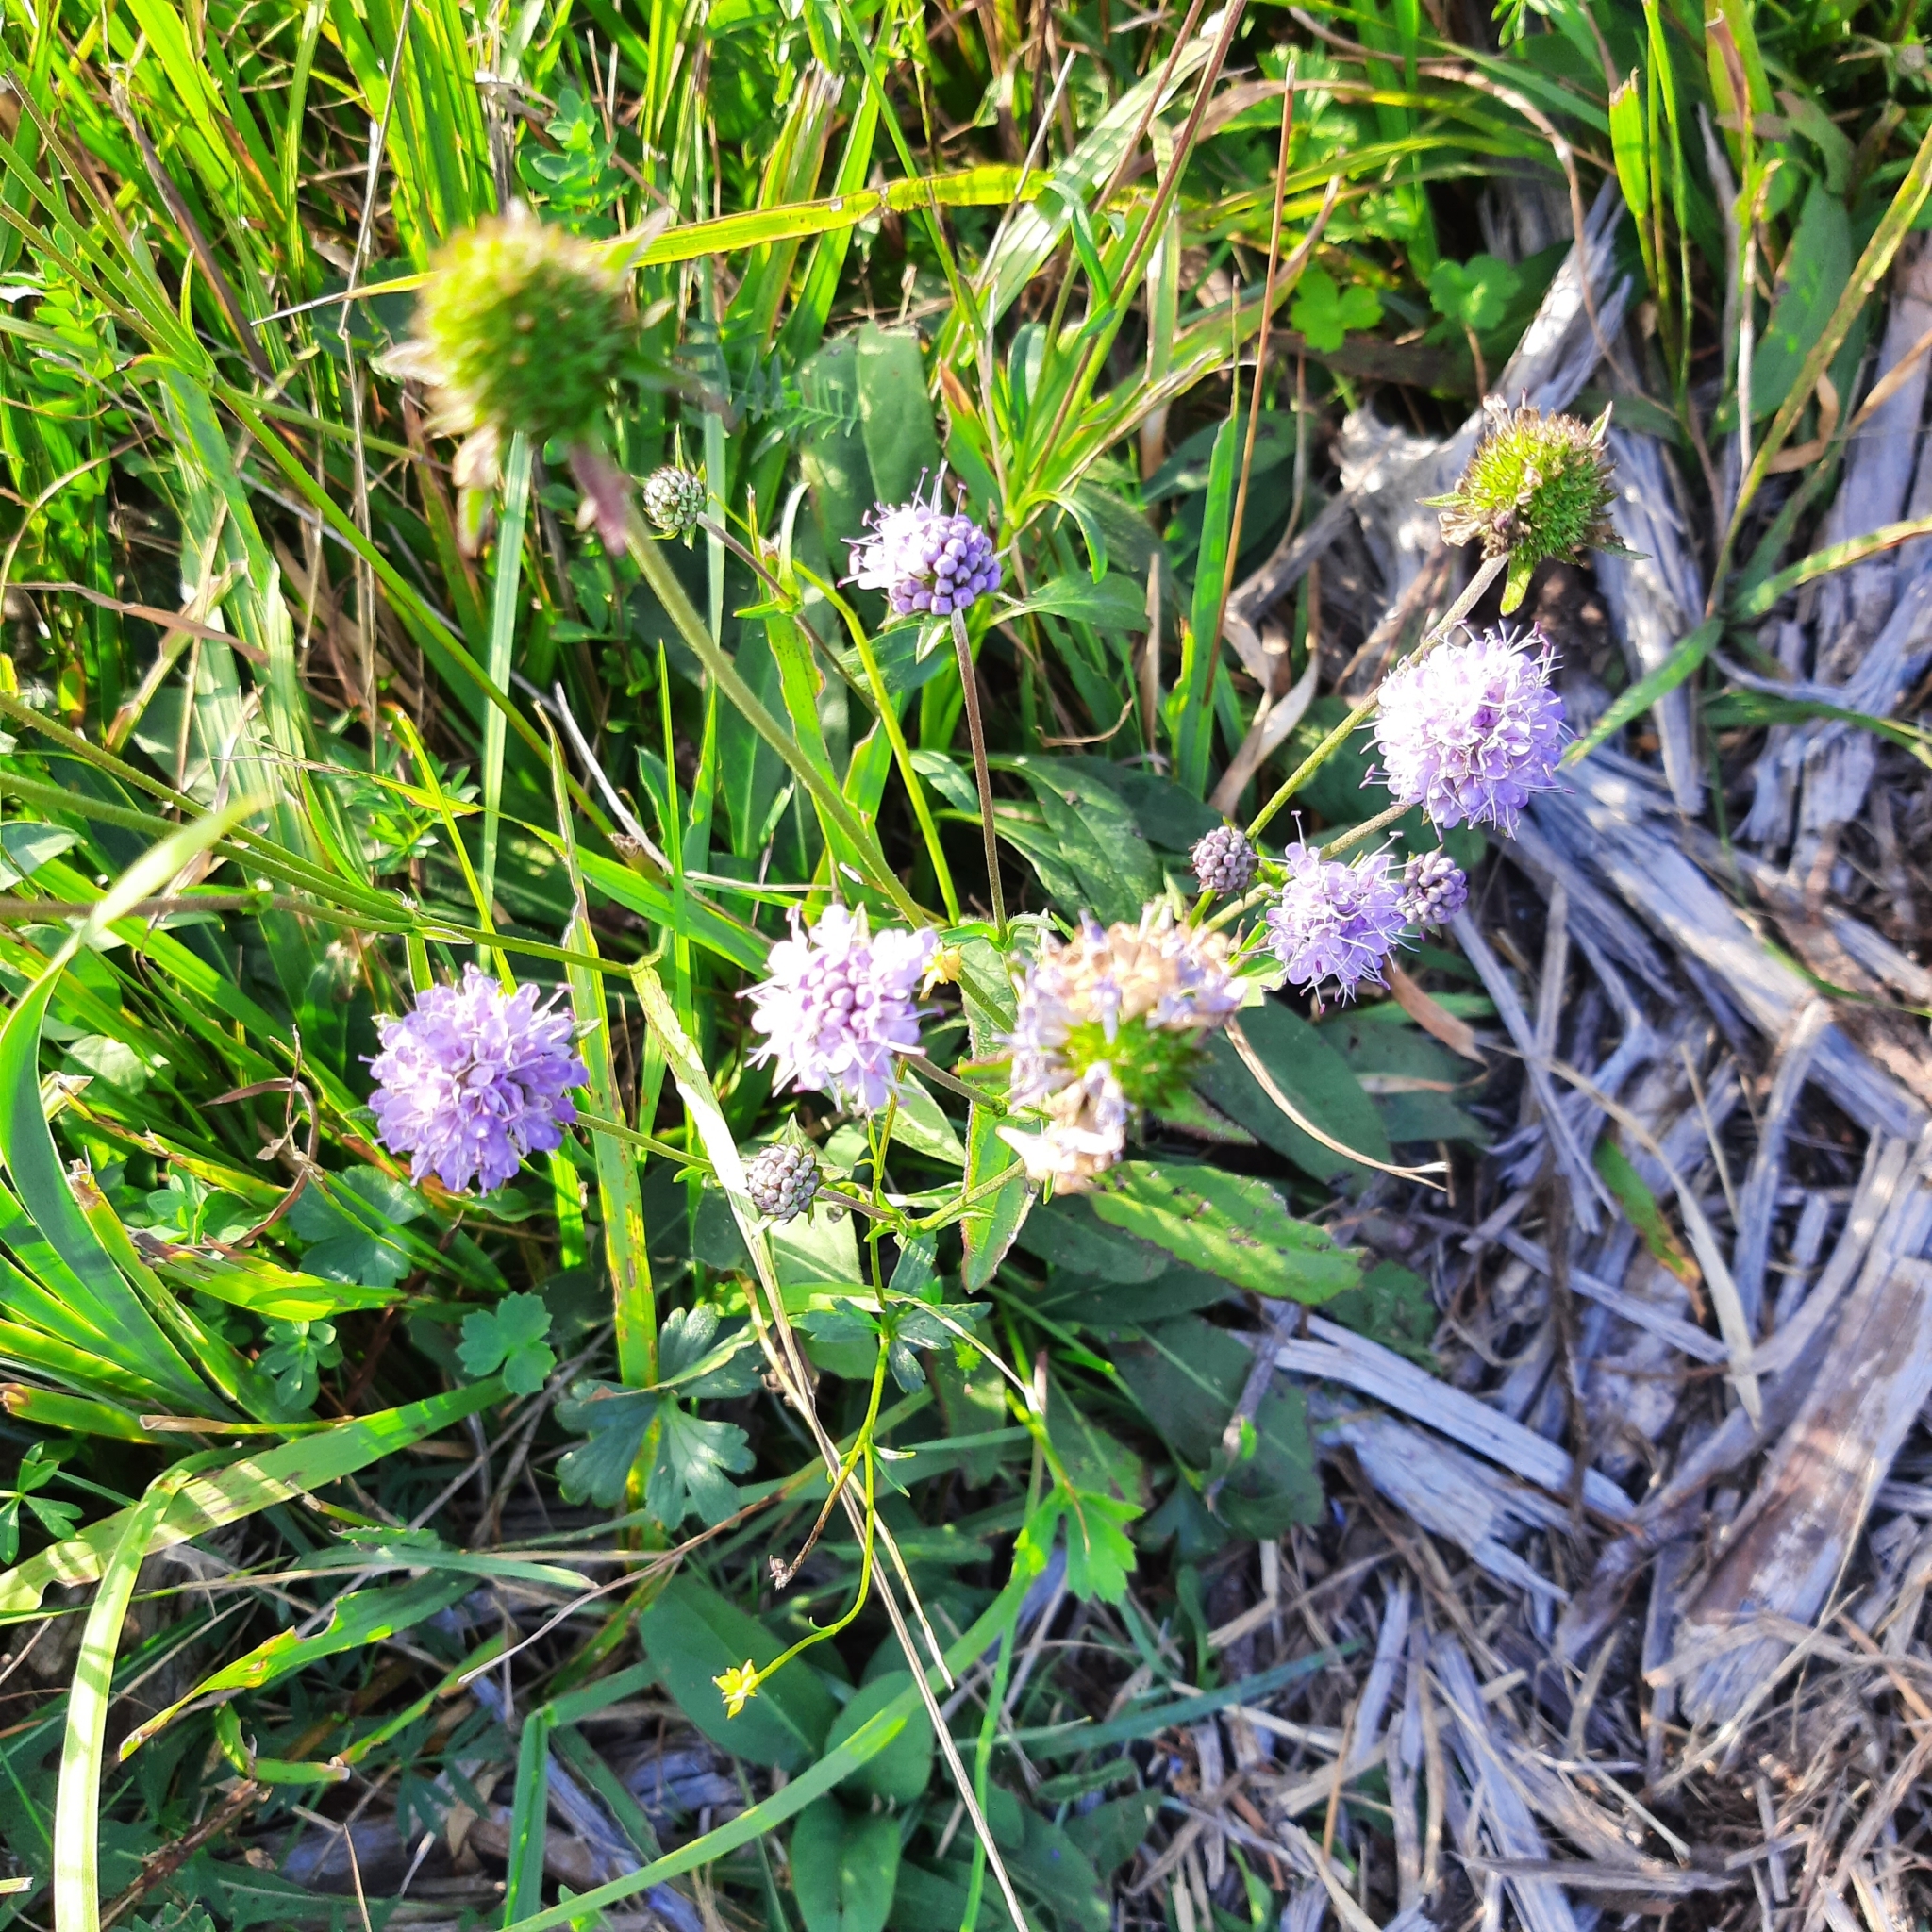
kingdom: Plantae
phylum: Tracheophyta
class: Magnoliopsida
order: Dipsacales
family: Caprifoliaceae
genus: Succisa
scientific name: Succisa pratensis
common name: Devil's-bit
